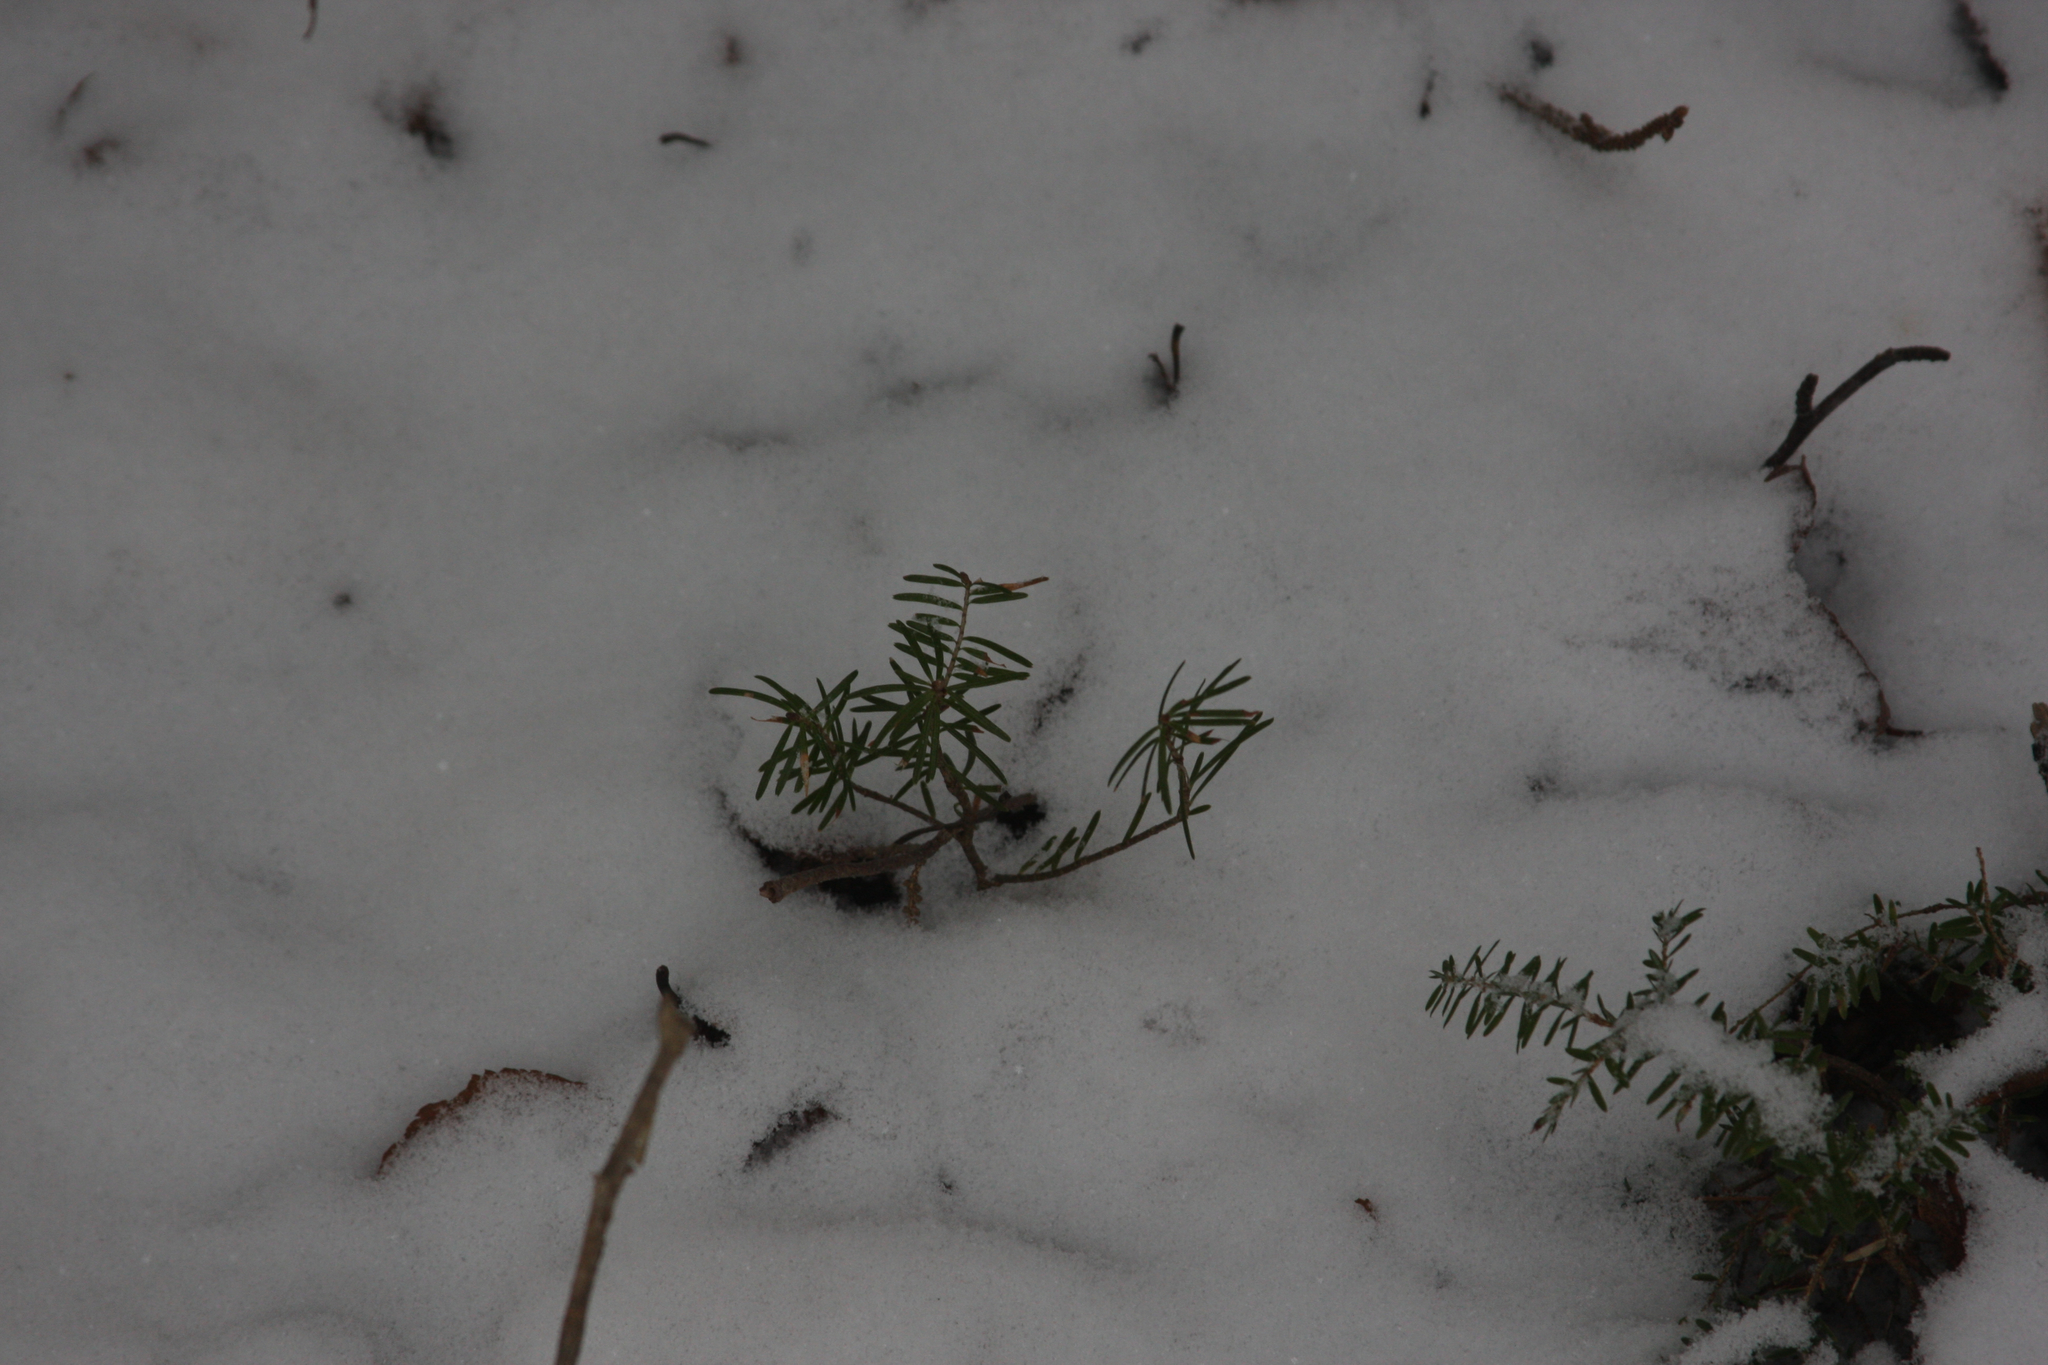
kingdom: Plantae
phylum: Tracheophyta
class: Pinopsida
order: Pinales
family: Pinaceae
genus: Abies
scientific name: Abies balsamea
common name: Balsam fir
